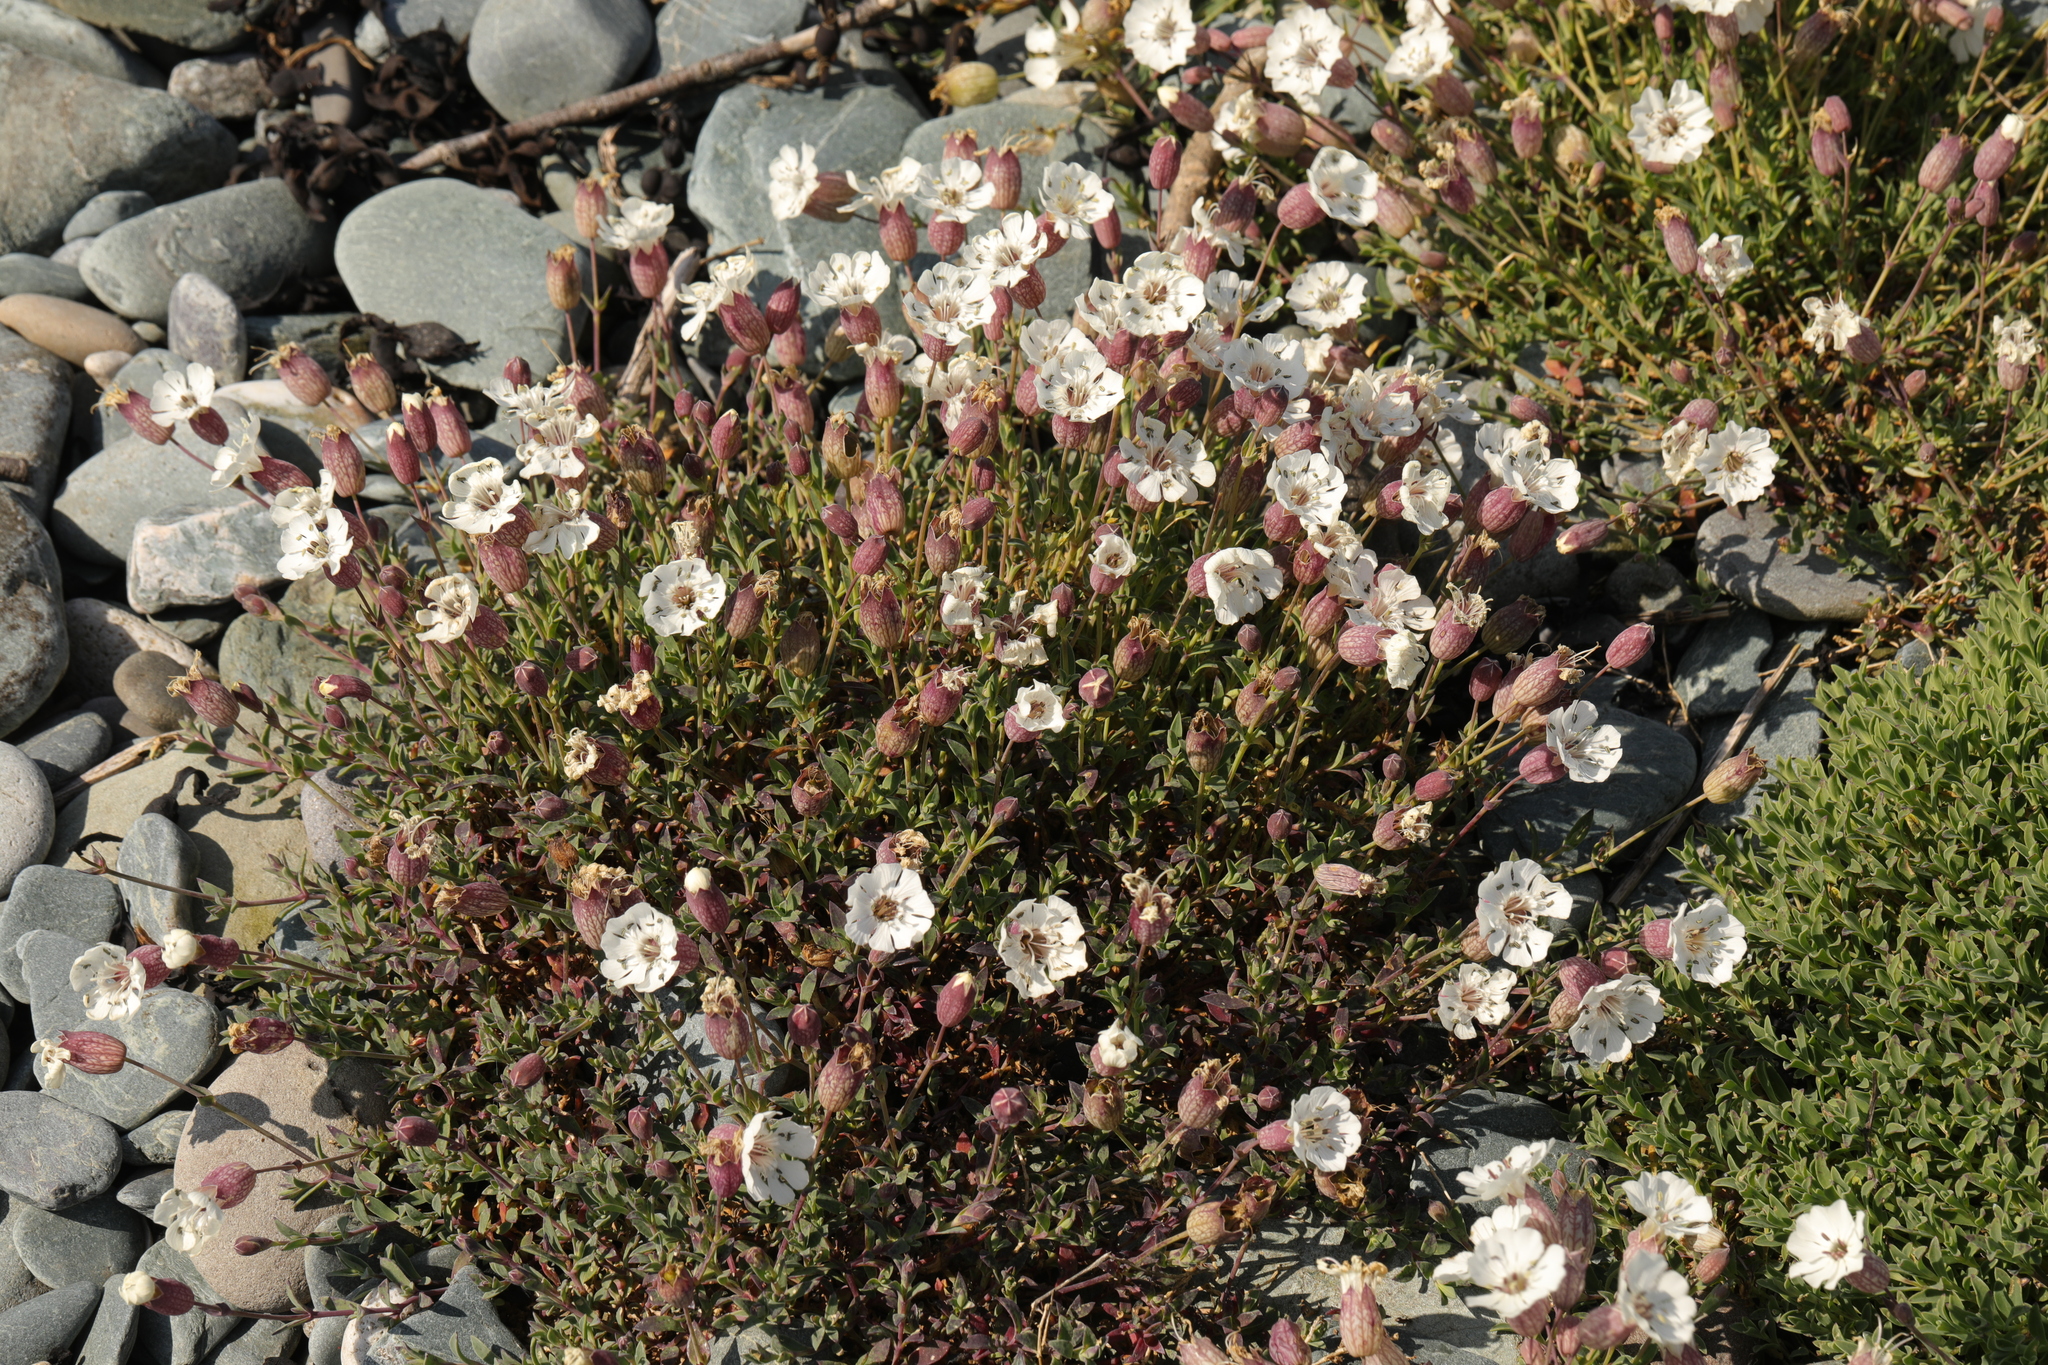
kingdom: Plantae
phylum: Tracheophyta
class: Magnoliopsida
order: Caryophyllales
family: Caryophyllaceae
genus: Silene
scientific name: Silene uniflora
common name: Sea campion
